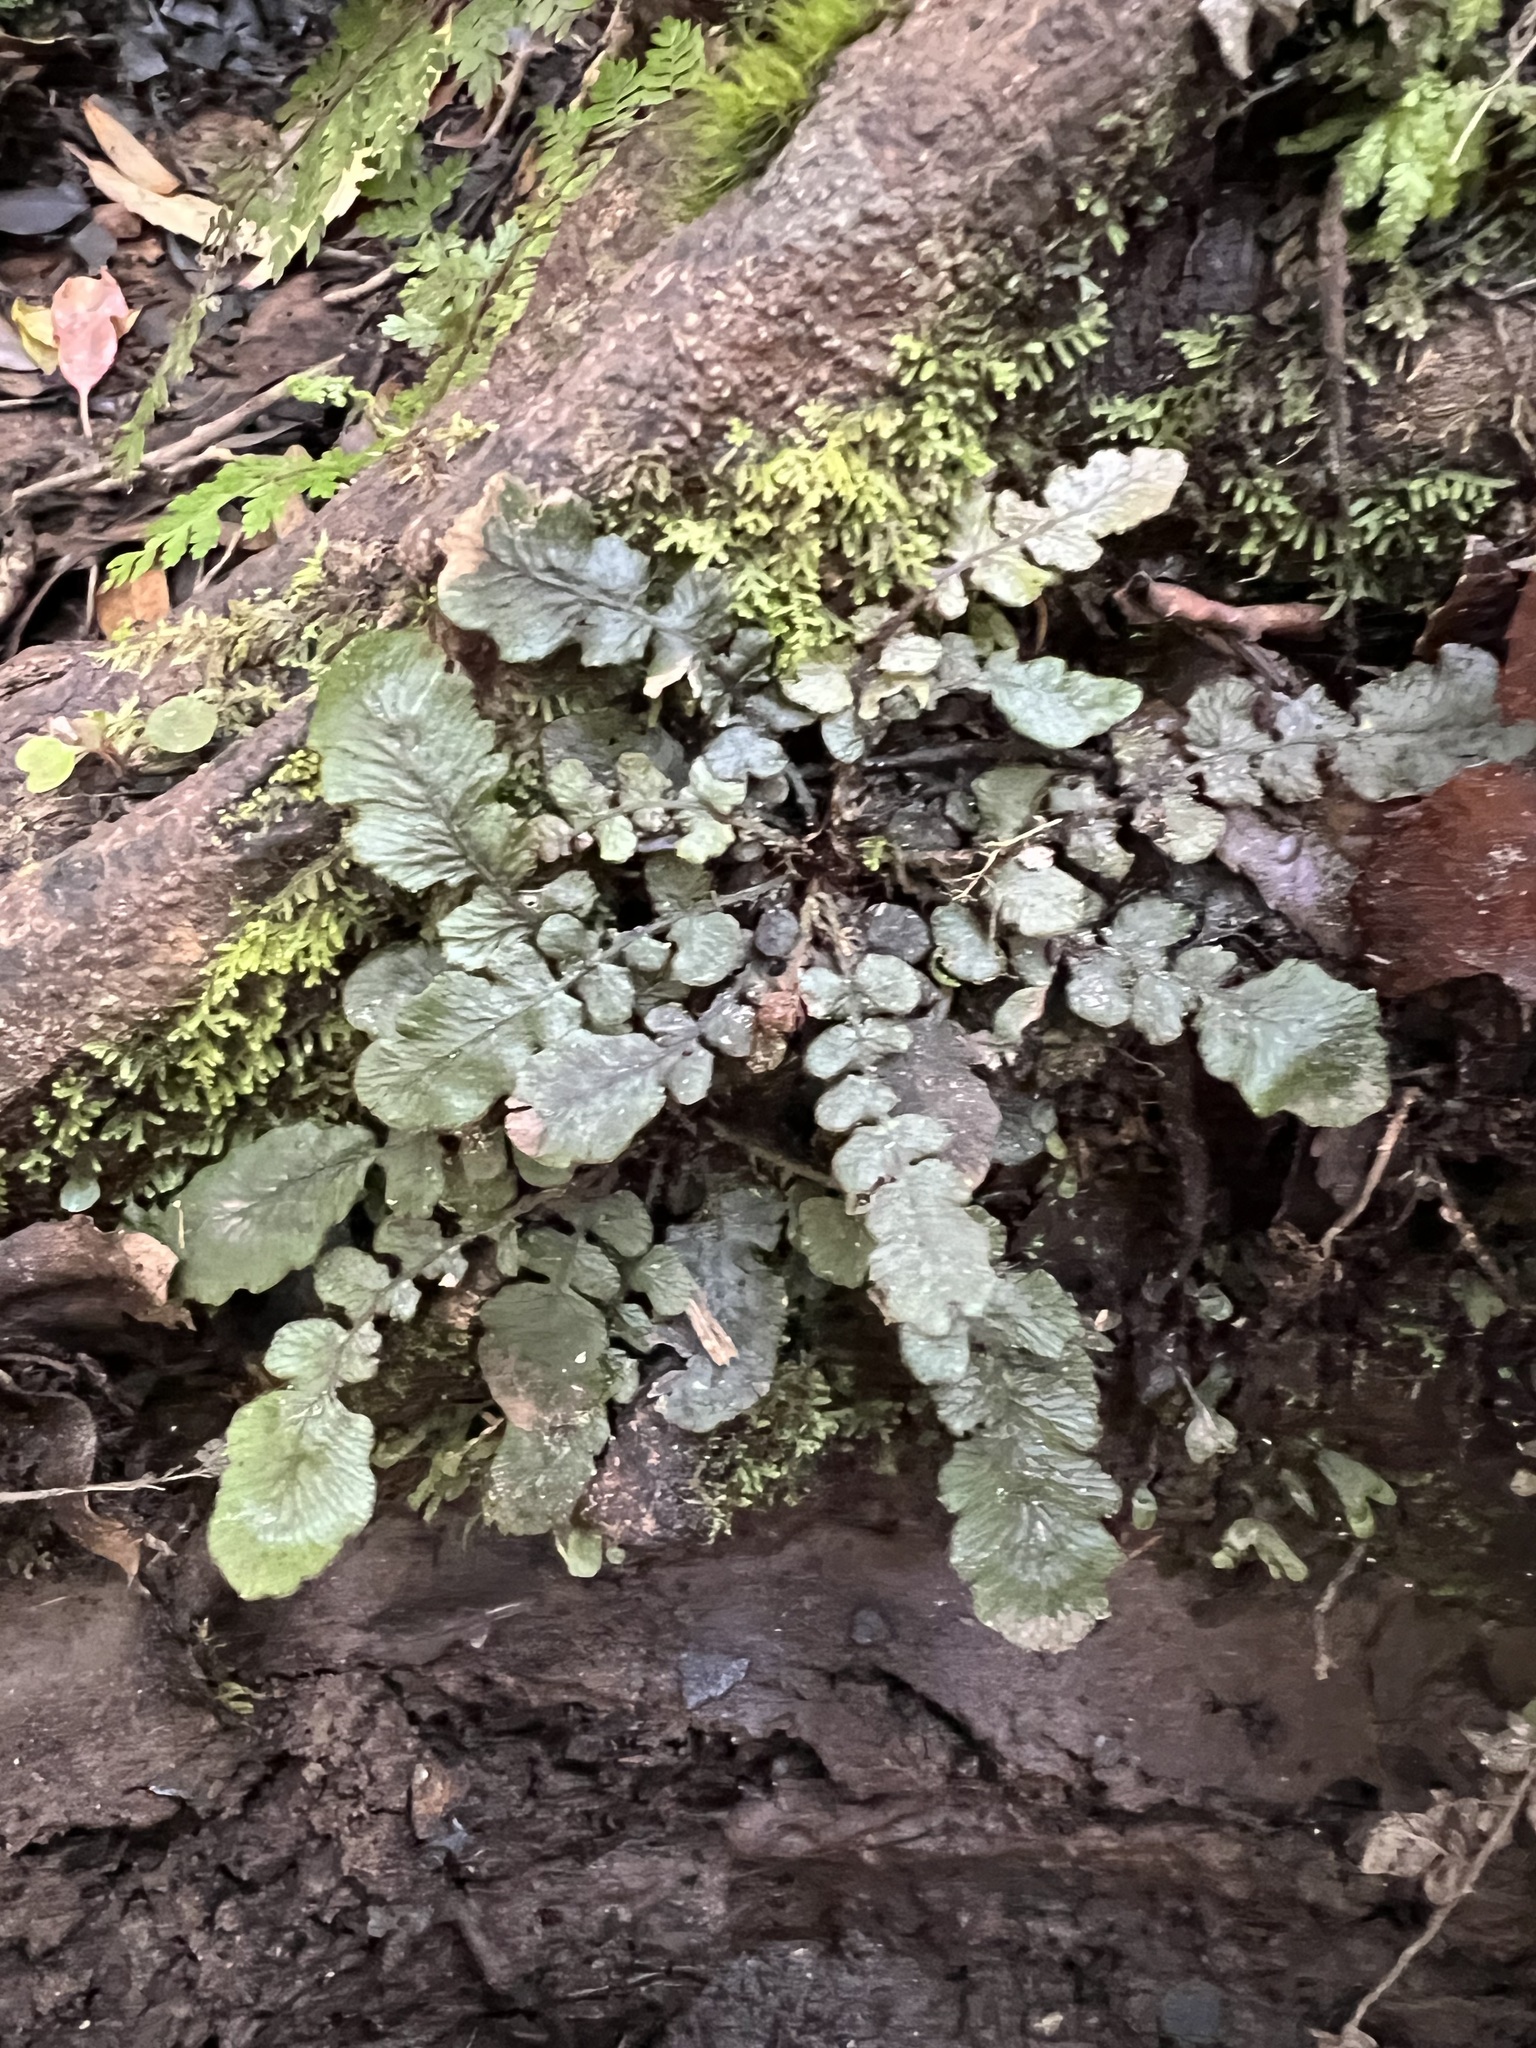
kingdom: Plantae
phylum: Tracheophyta
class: Polypodiopsida
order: Polypodiales
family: Blechnaceae
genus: Cranfillia
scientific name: Cranfillia nigra
